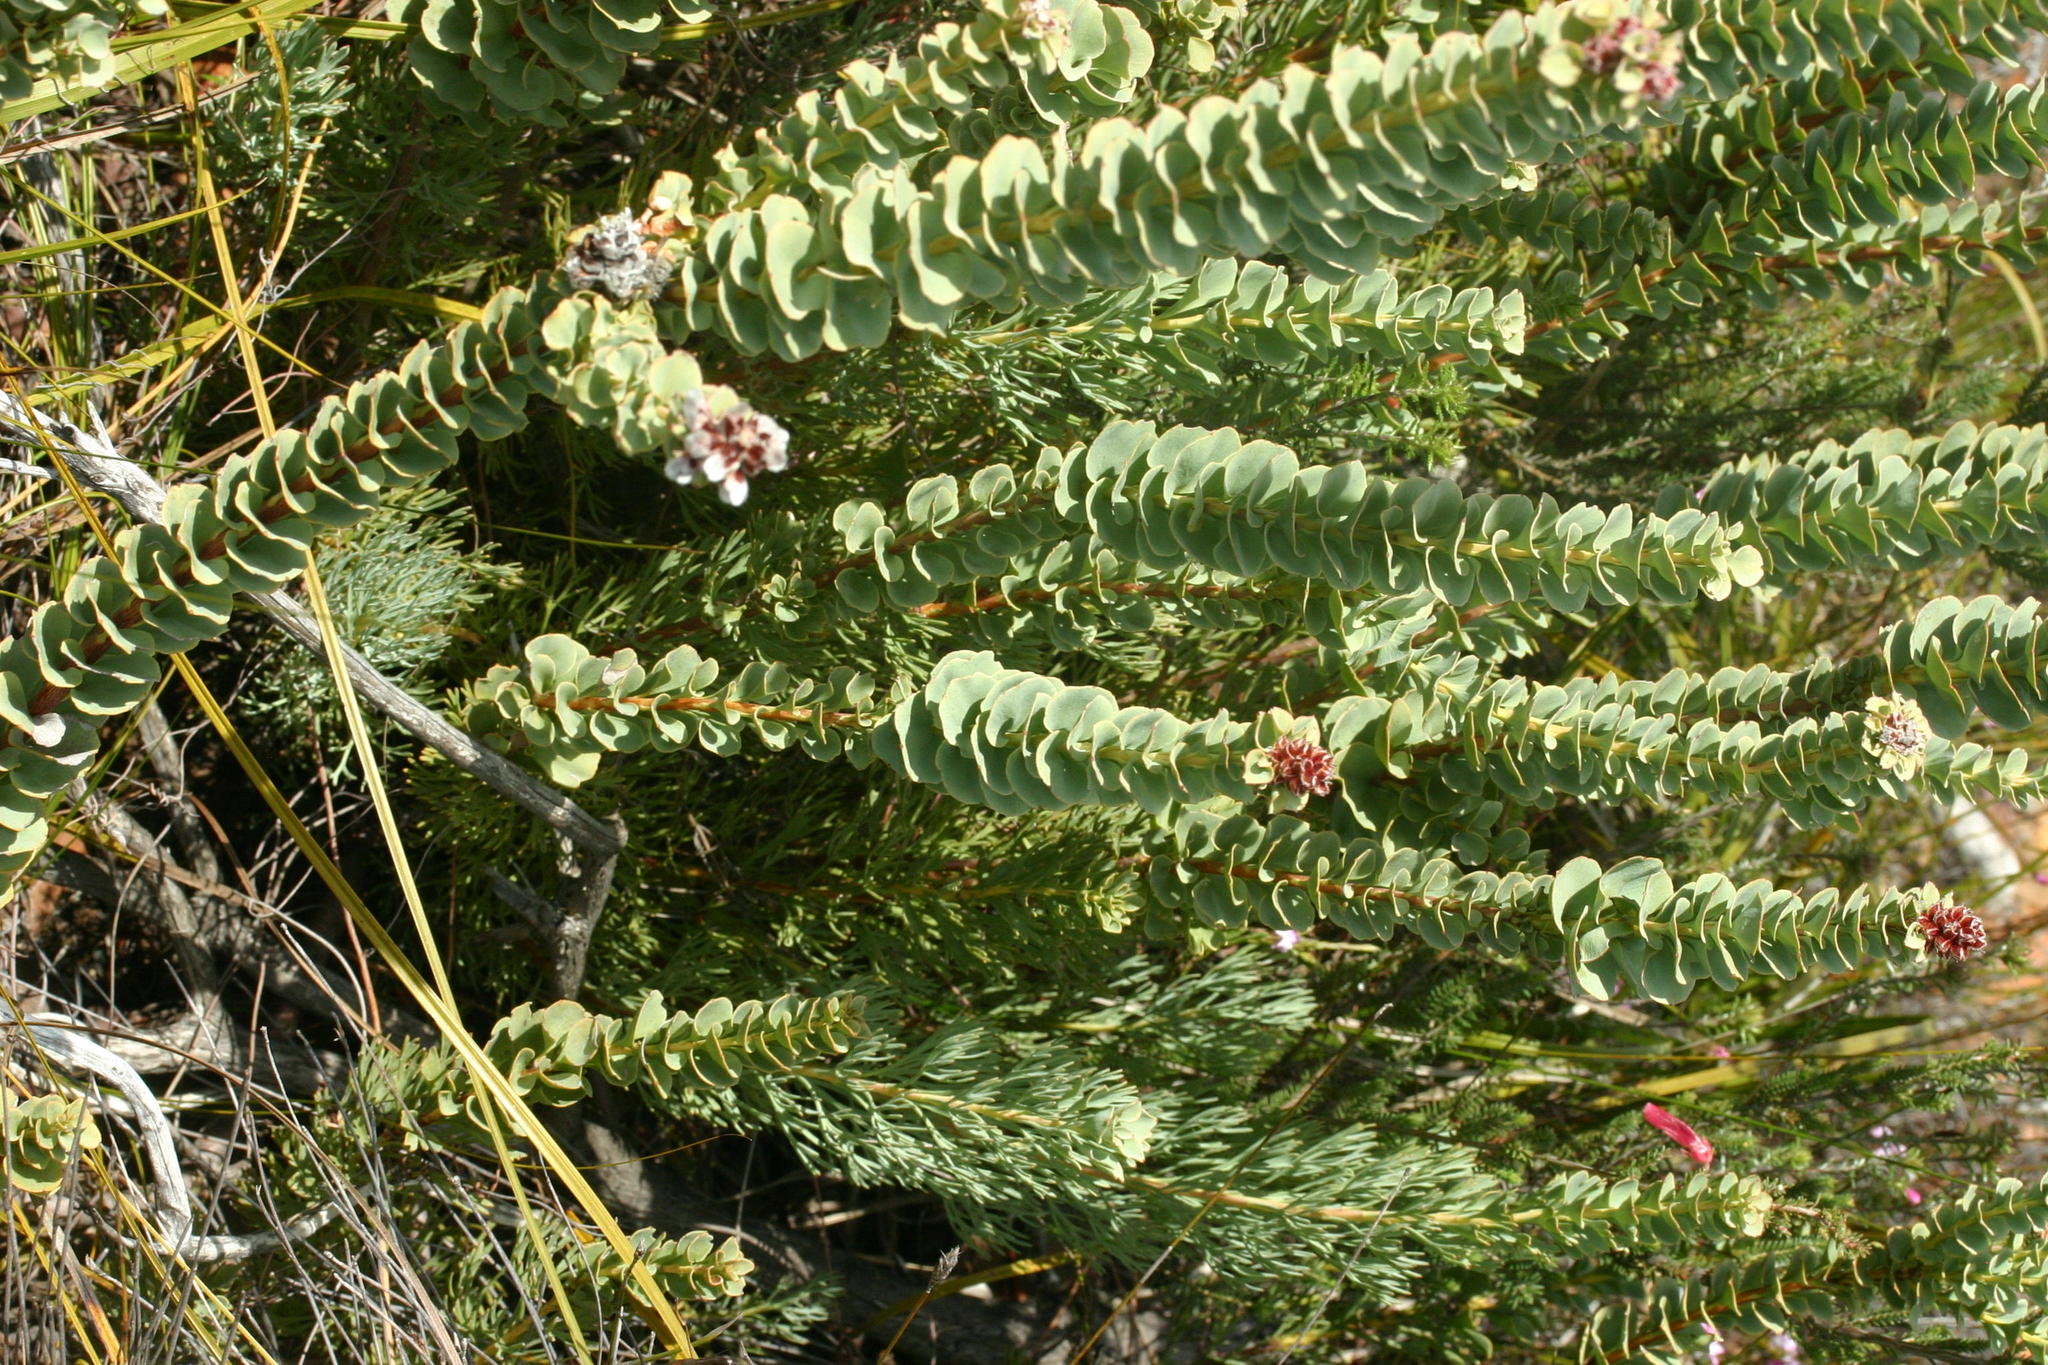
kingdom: Plantae
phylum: Tracheophyta
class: Magnoliopsida
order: Proteales
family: Proteaceae
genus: Paranomus
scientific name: Paranomus spathulatus
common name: Langeberg sceptre
